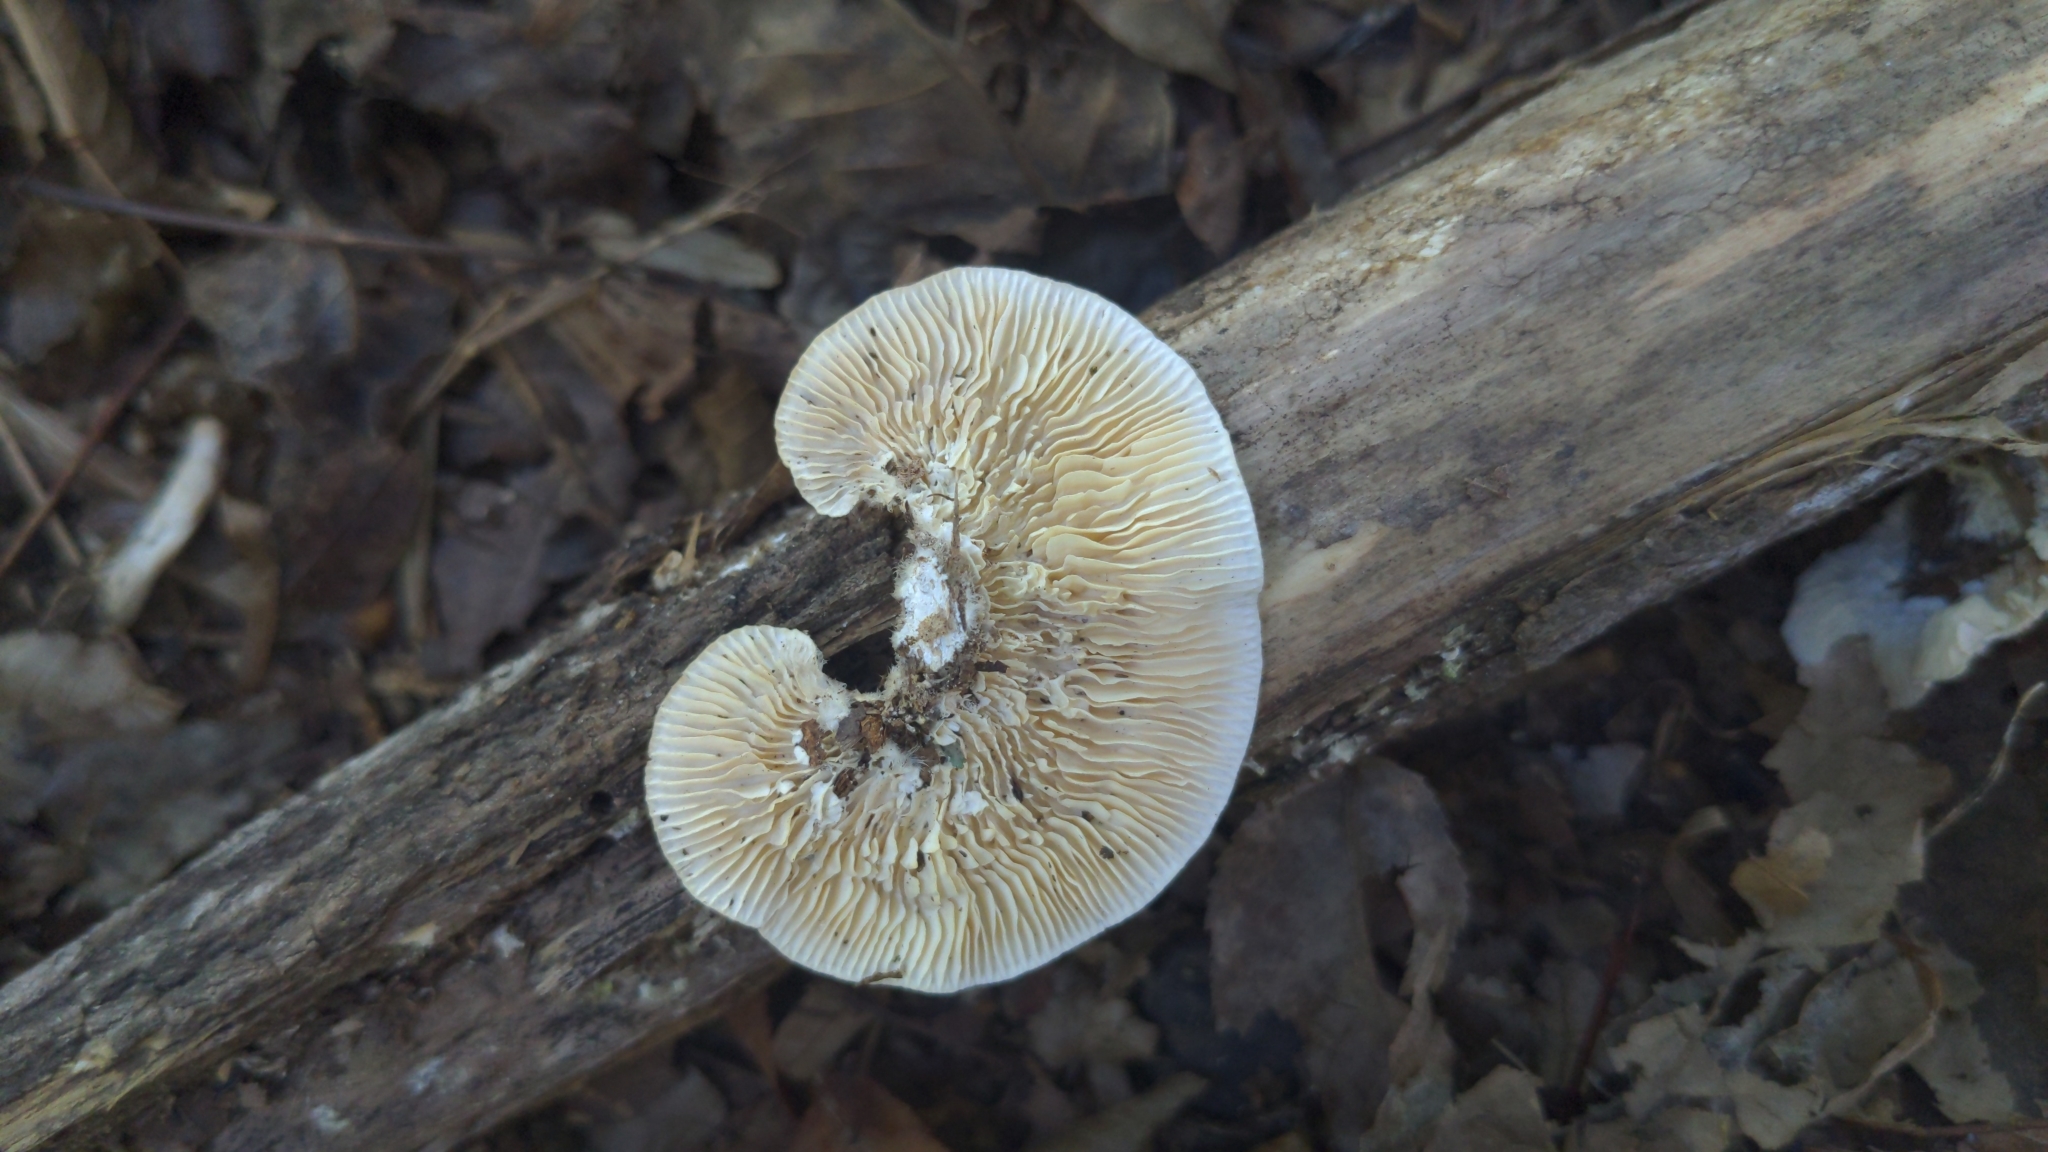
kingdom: Fungi
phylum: Basidiomycota
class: Agaricomycetes
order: Polyporales
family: Polyporaceae
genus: Lenzites
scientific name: Lenzites betulinus
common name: Birch mazegill
